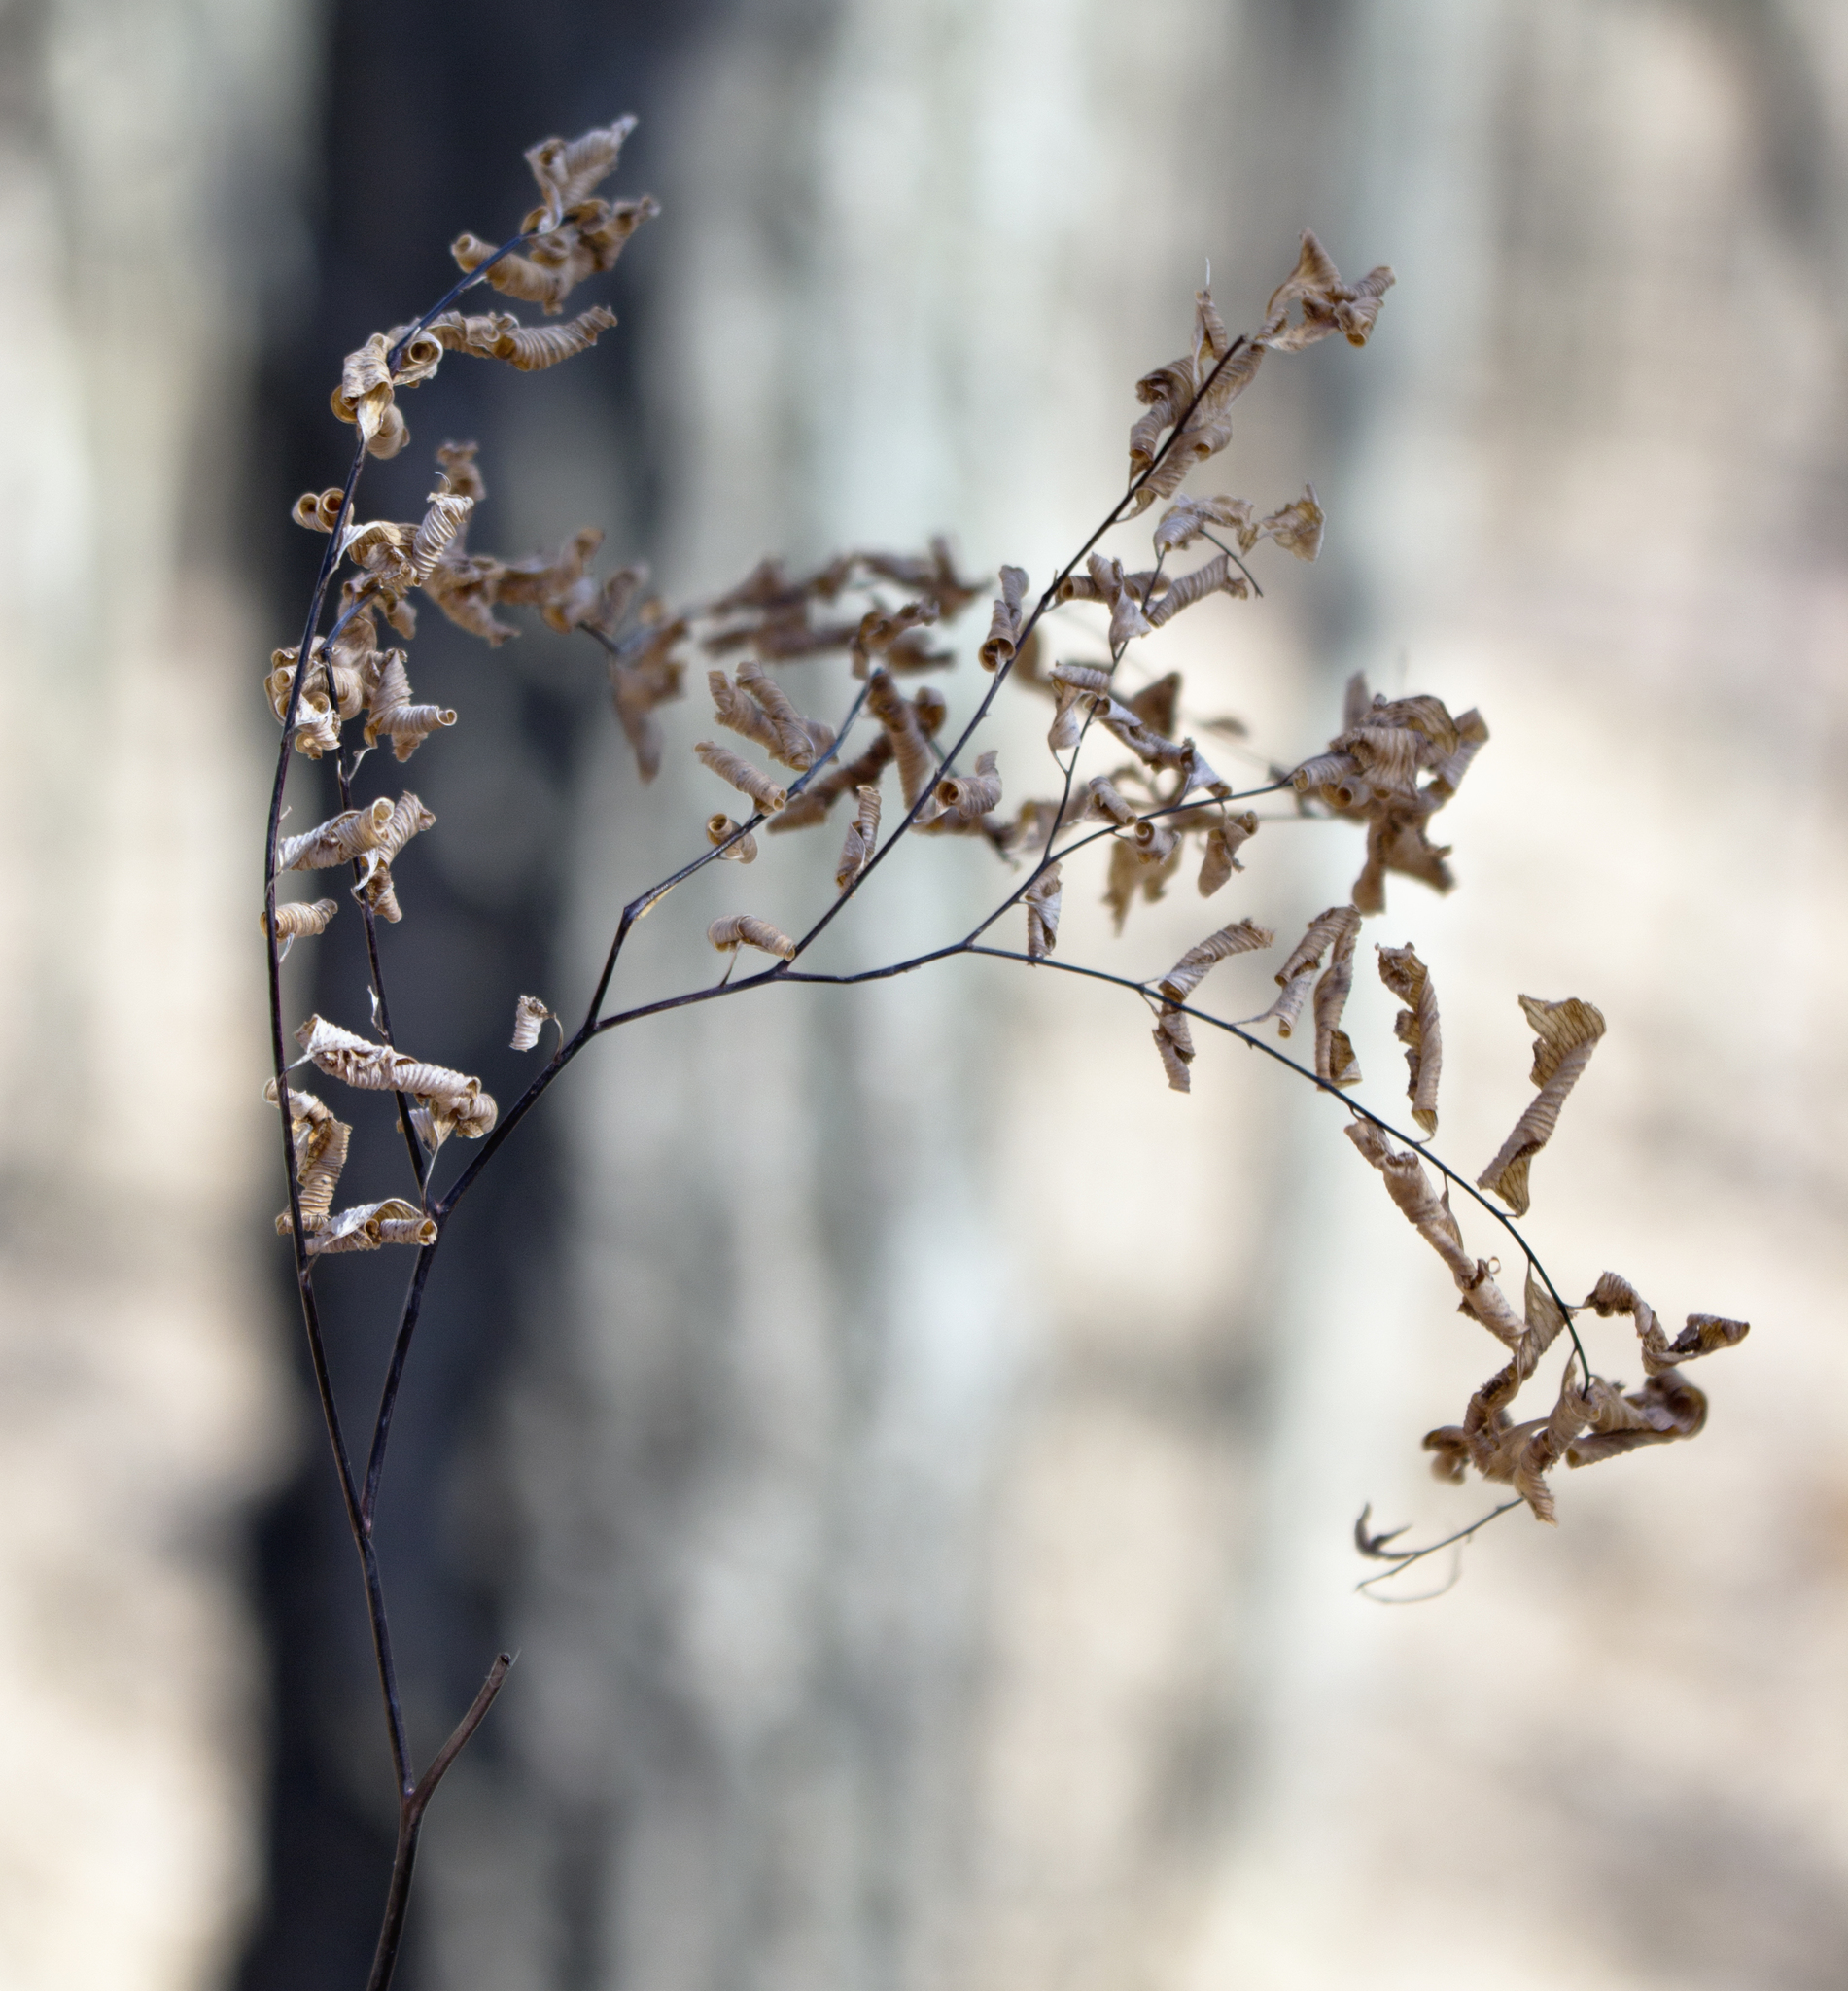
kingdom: Plantae
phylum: Tracheophyta
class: Polypodiopsida
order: Polypodiales
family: Pteridaceae
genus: Adiantum
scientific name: Adiantum pedatum
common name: Five-finger fern
